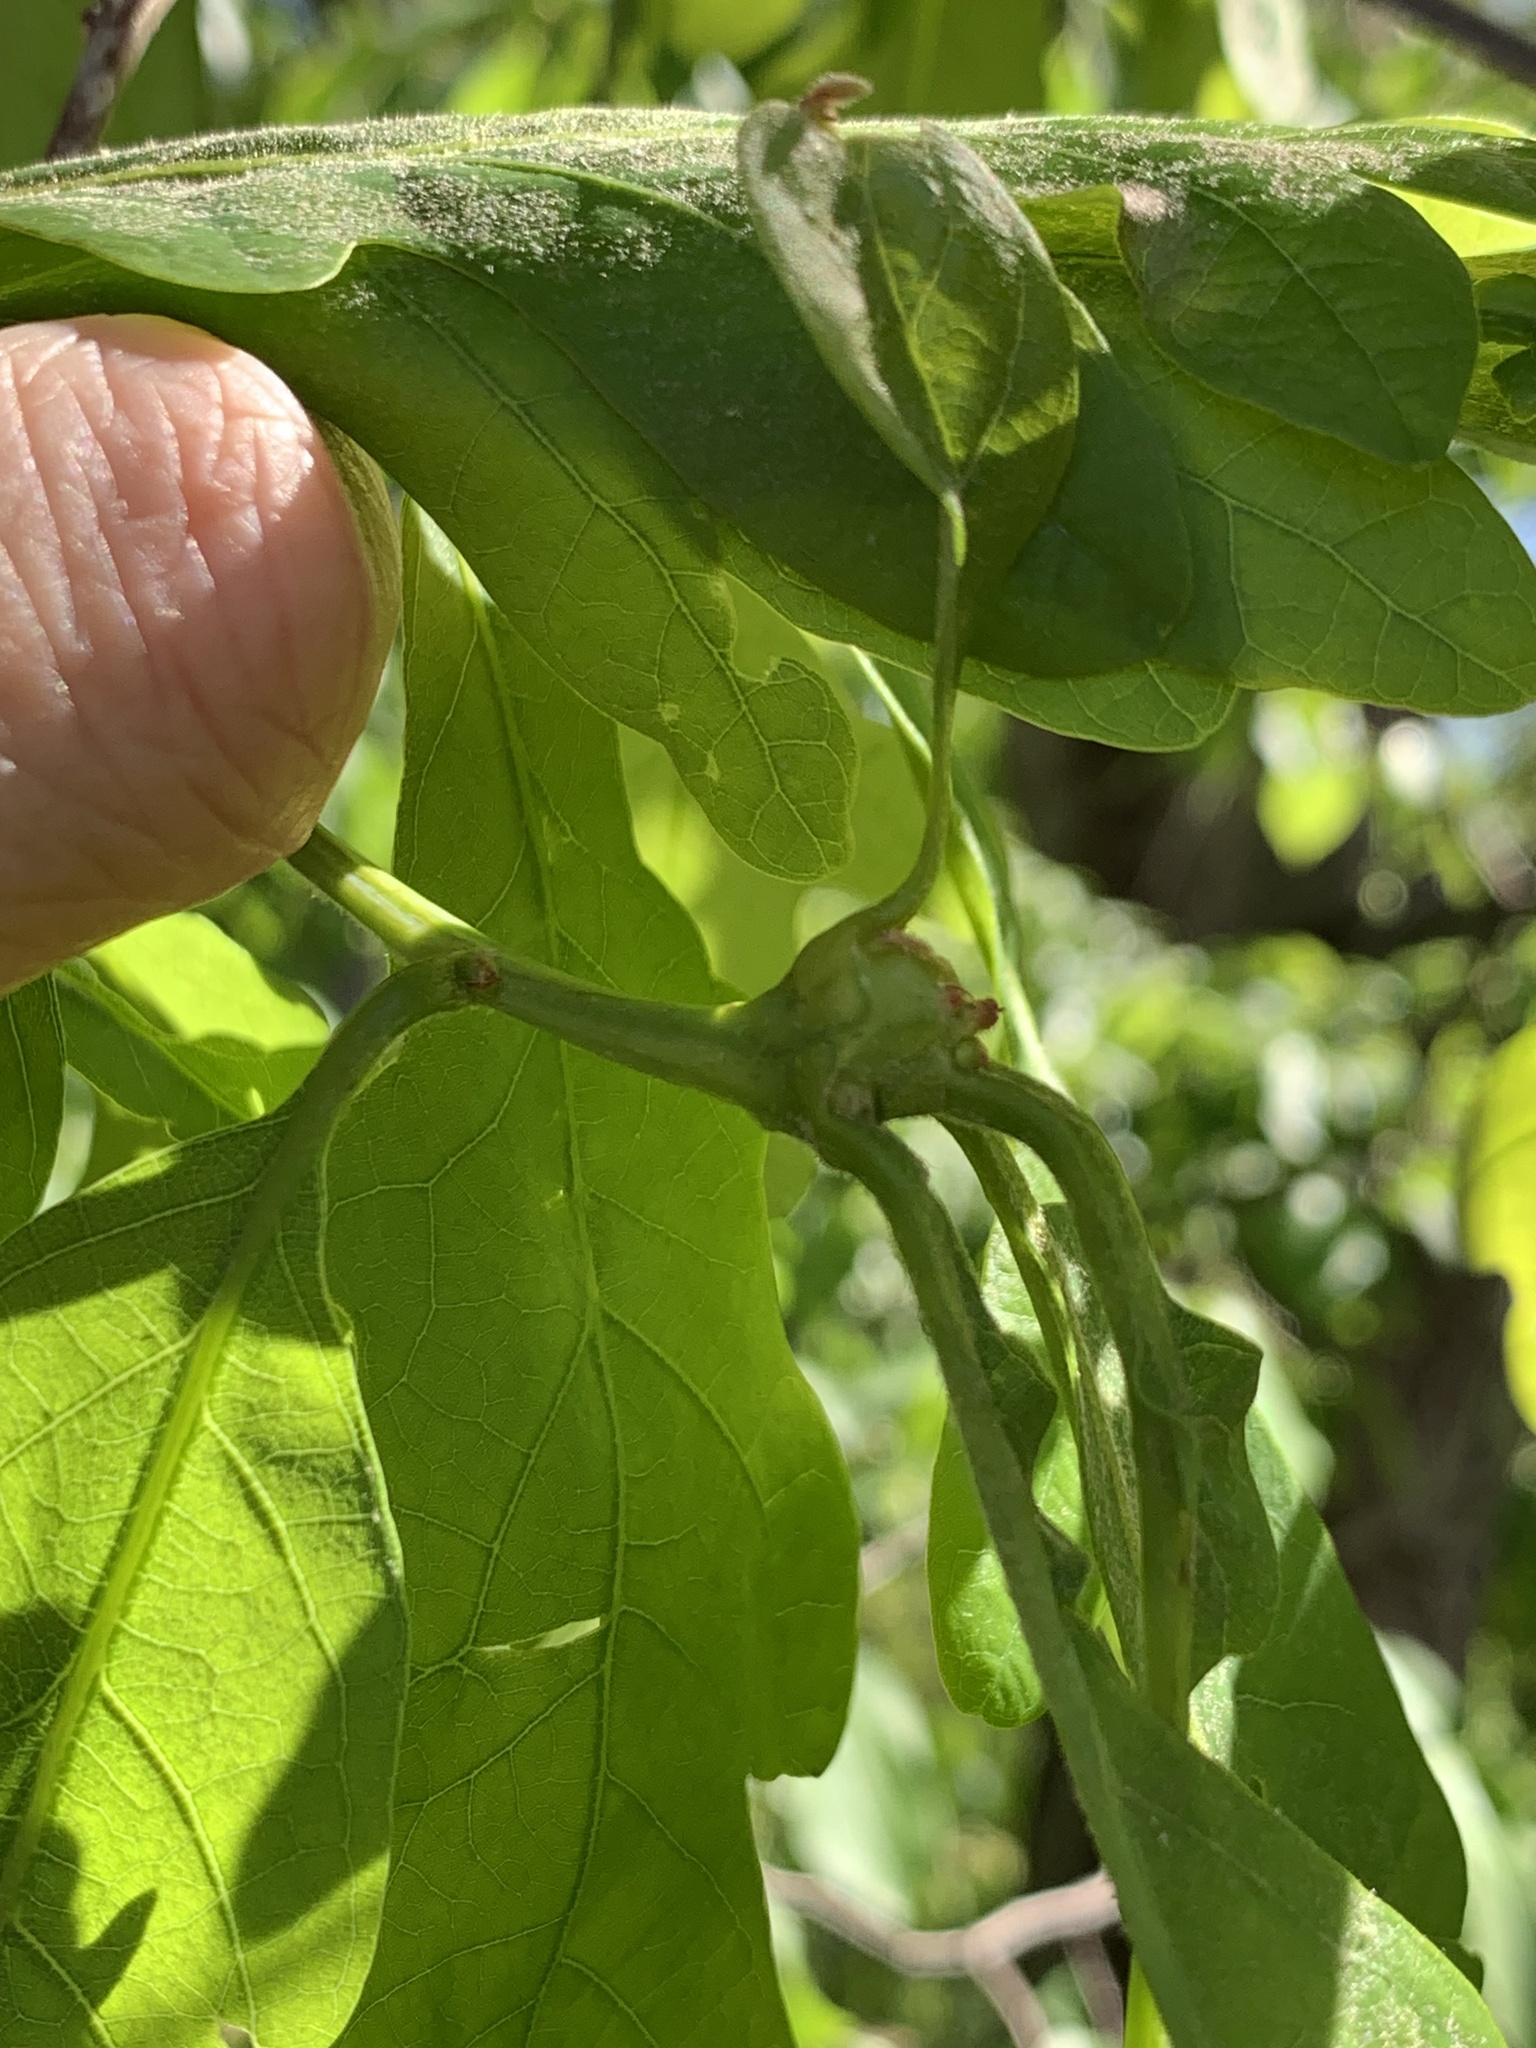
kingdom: Animalia
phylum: Arthropoda
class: Insecta
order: Hymenoptera
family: Cynipidae
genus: Callirhytis
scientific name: Callirhytis clavula
